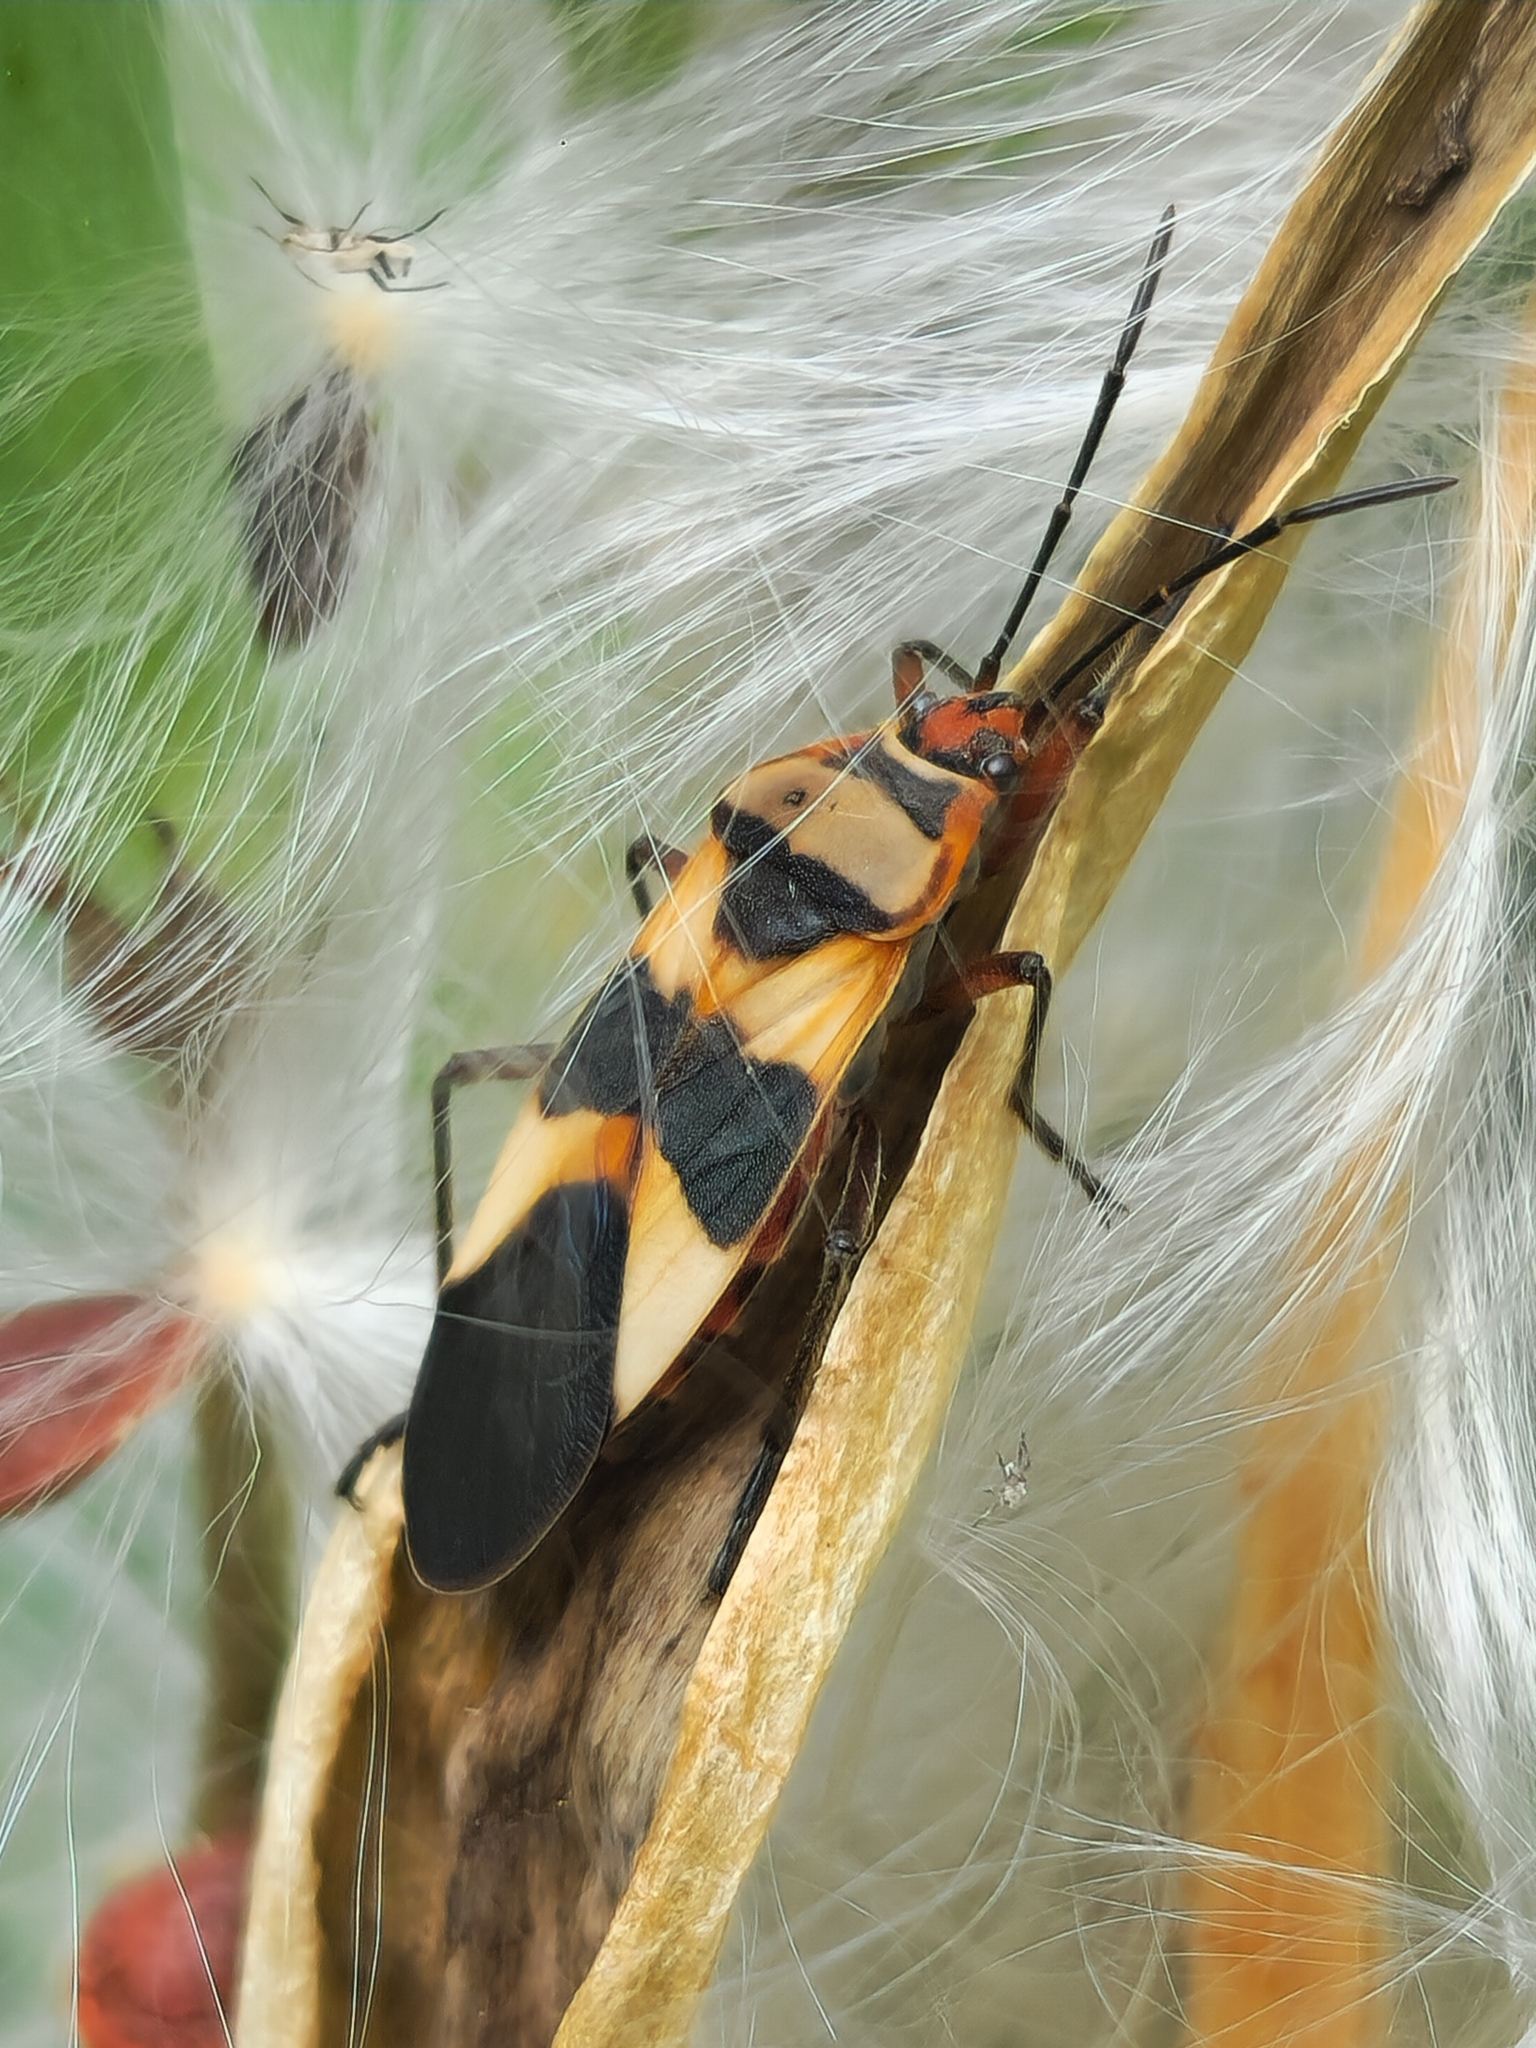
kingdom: Animalia
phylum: Arthropoda
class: Insecta
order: Hemiptera
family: Lygaeidae
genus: Oncopeltus
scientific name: Oncopeltus unifasciatellus
